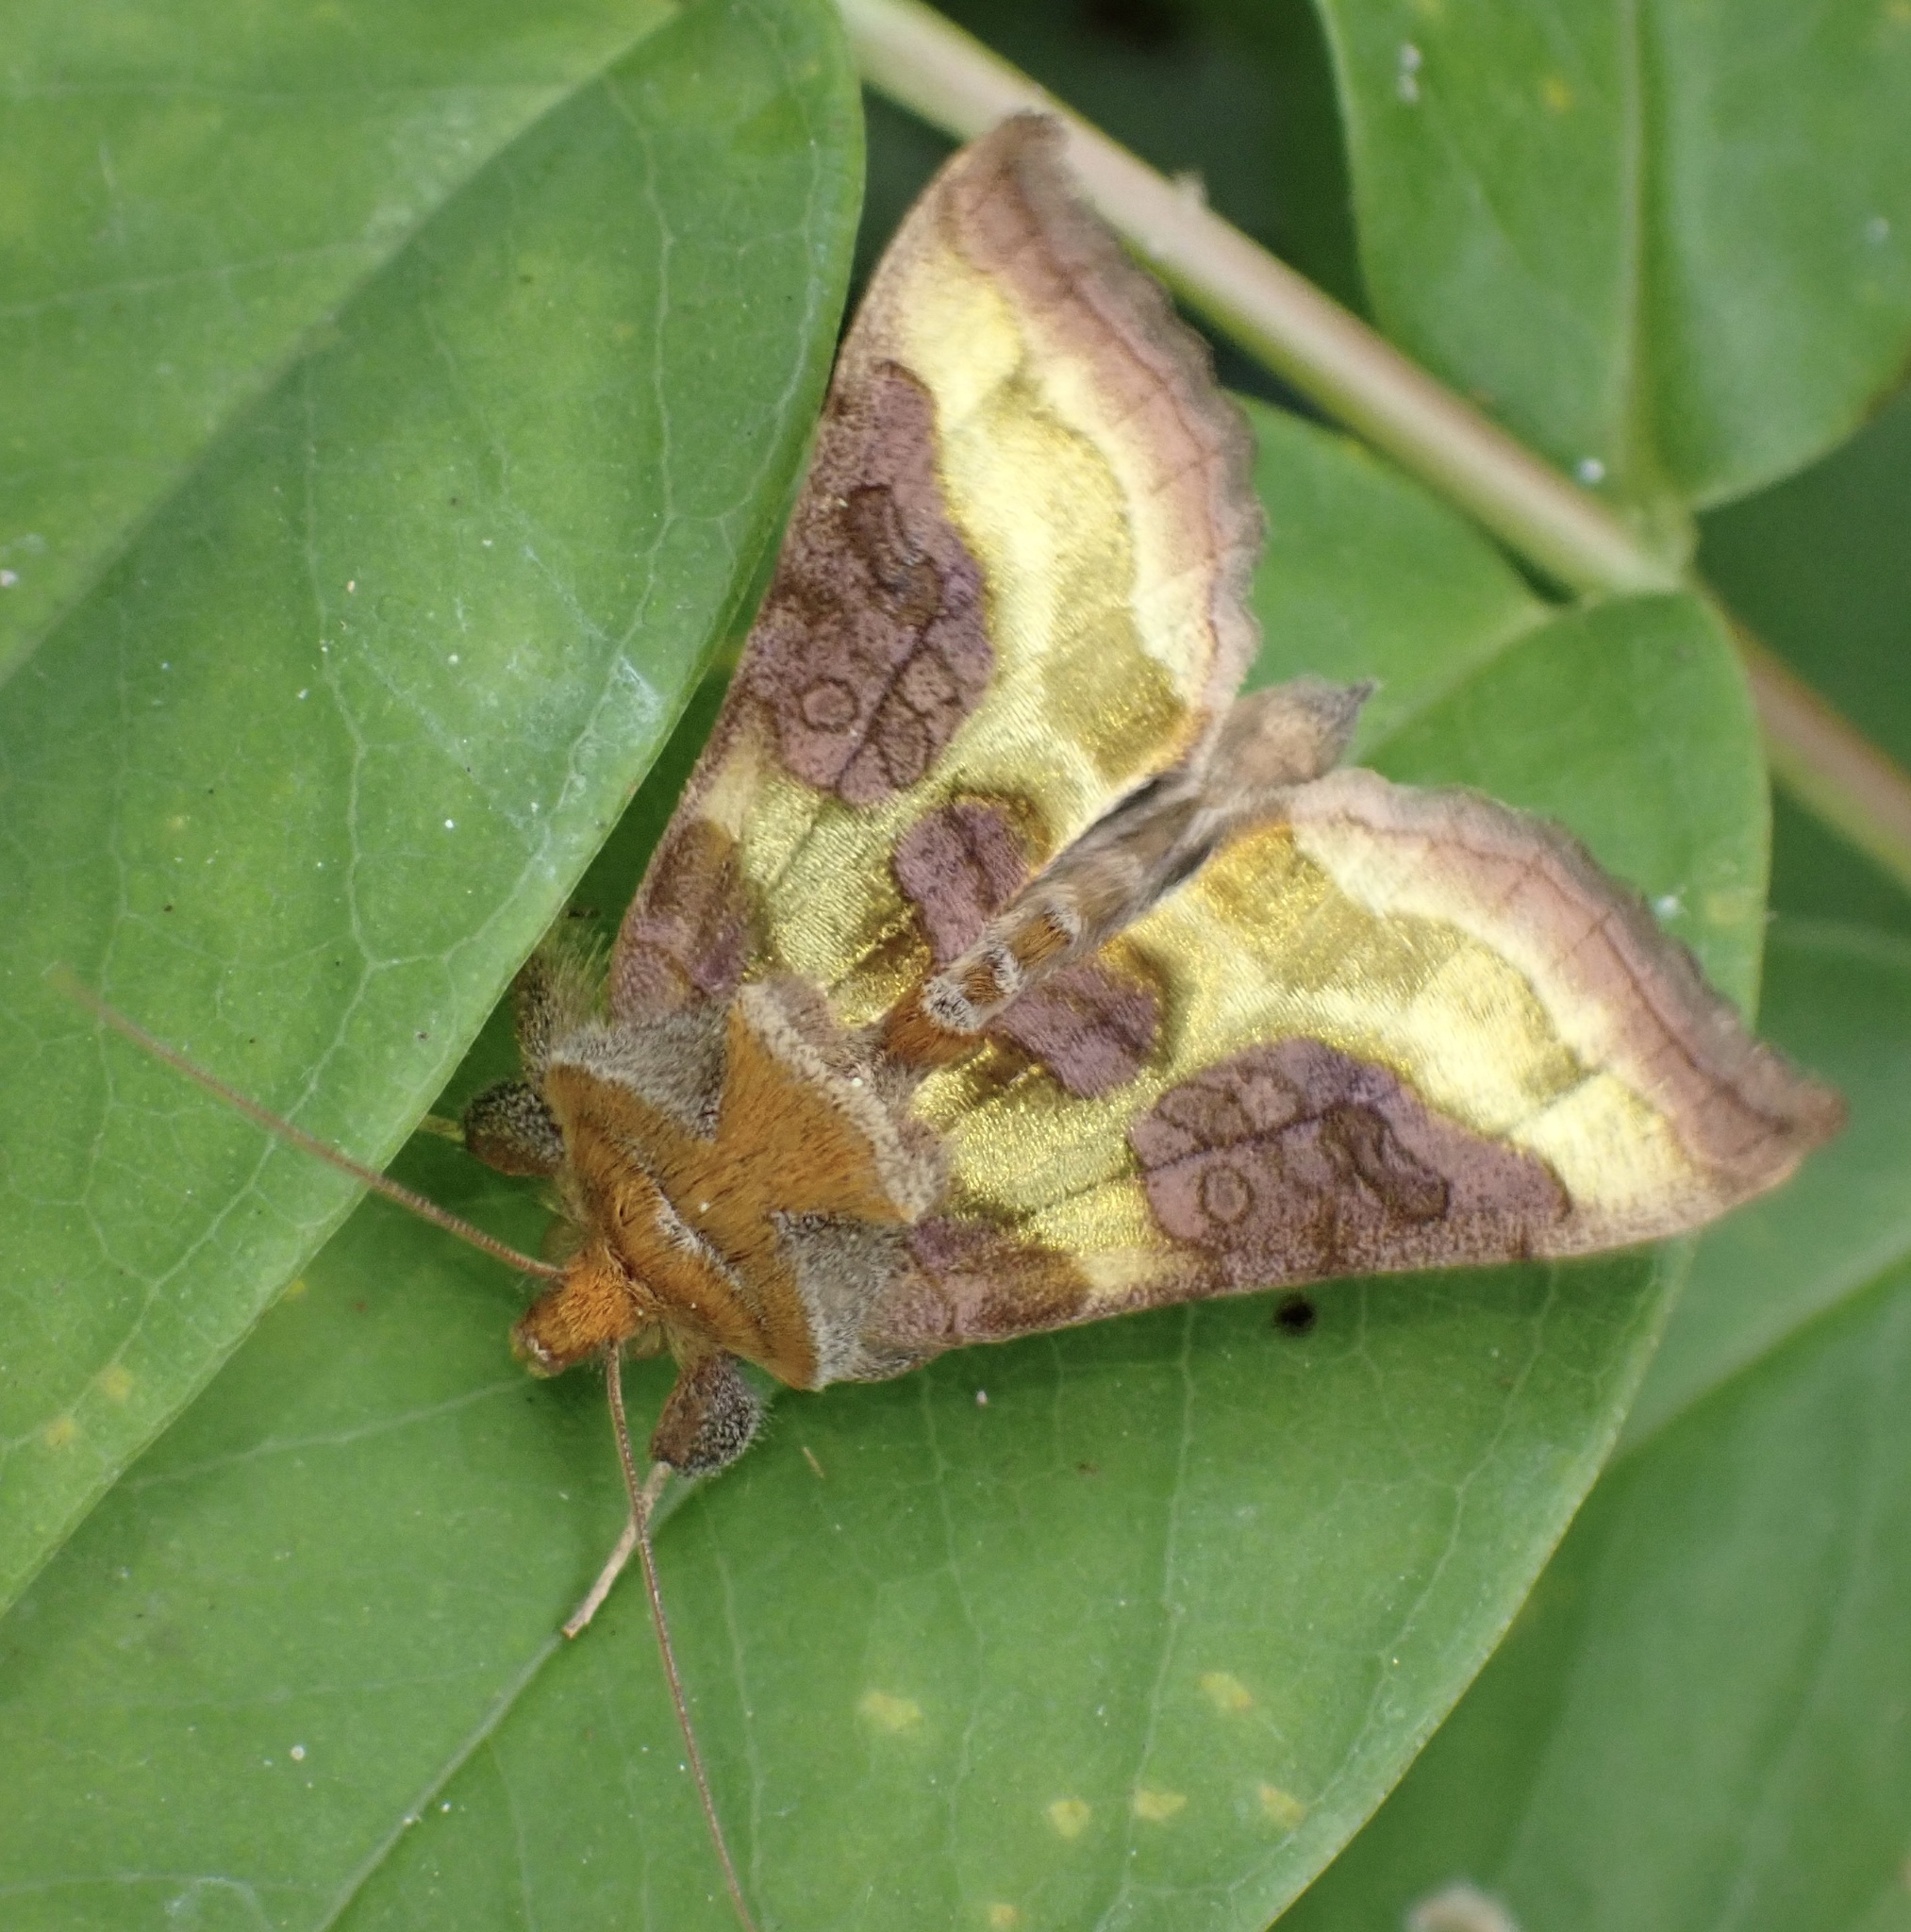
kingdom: Animalia
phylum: Arthropoda
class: Insecta
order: Lepidoptera
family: Noctuidae
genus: Diachrysia
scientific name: Diachrysia chrysitis
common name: Burnished brass
